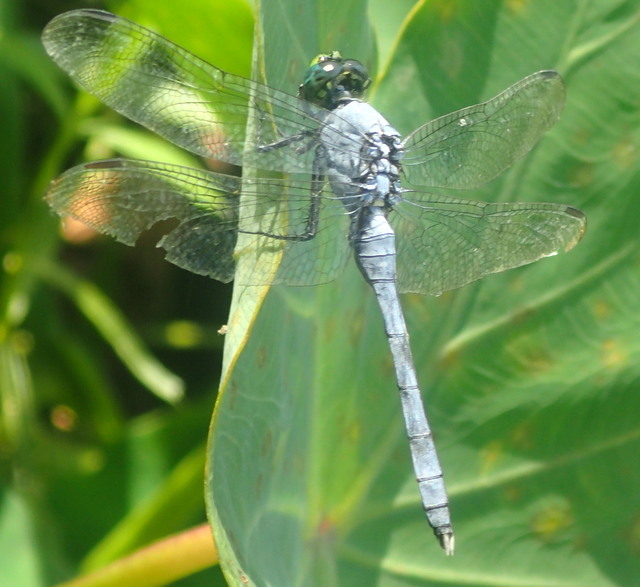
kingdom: Animalia
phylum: Arthropoda
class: Insecta
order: Odonata
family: Libellulidae
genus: Erythemis
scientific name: Erythemis simplicicollis
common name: Eastern pondhawk
